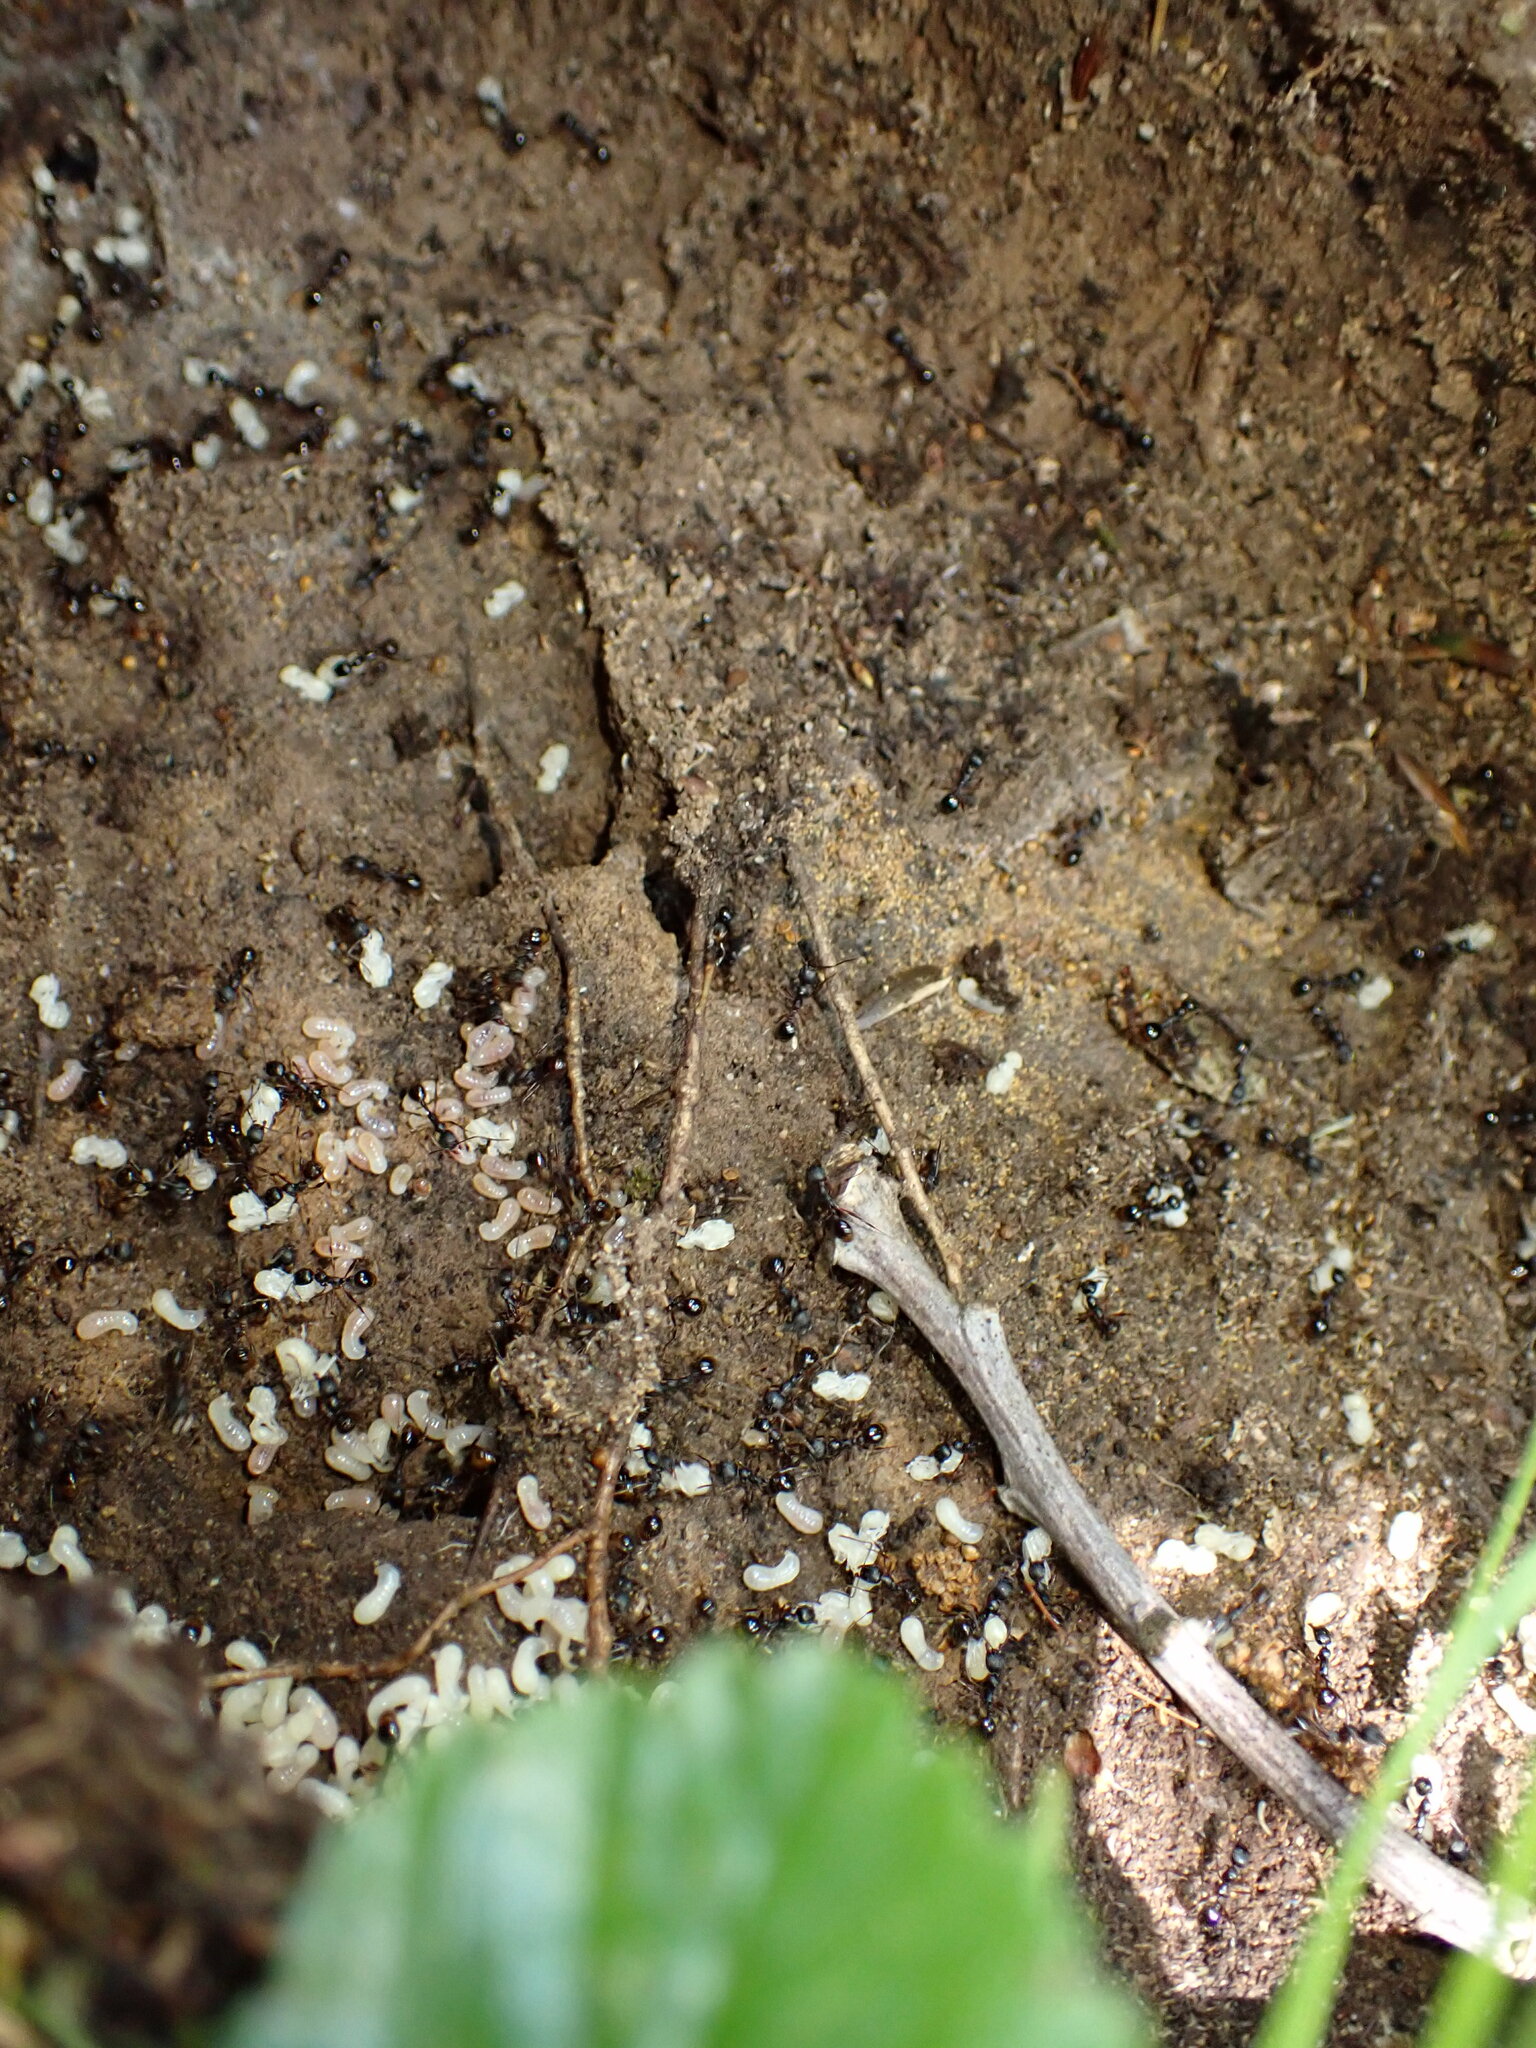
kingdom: Animalia
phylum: Arthropoda
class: Insecta
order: Hymenoptera
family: Formicidae
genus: Aphaenogaster
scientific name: Aphaenogaster picea
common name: Pitch-black collared ant
